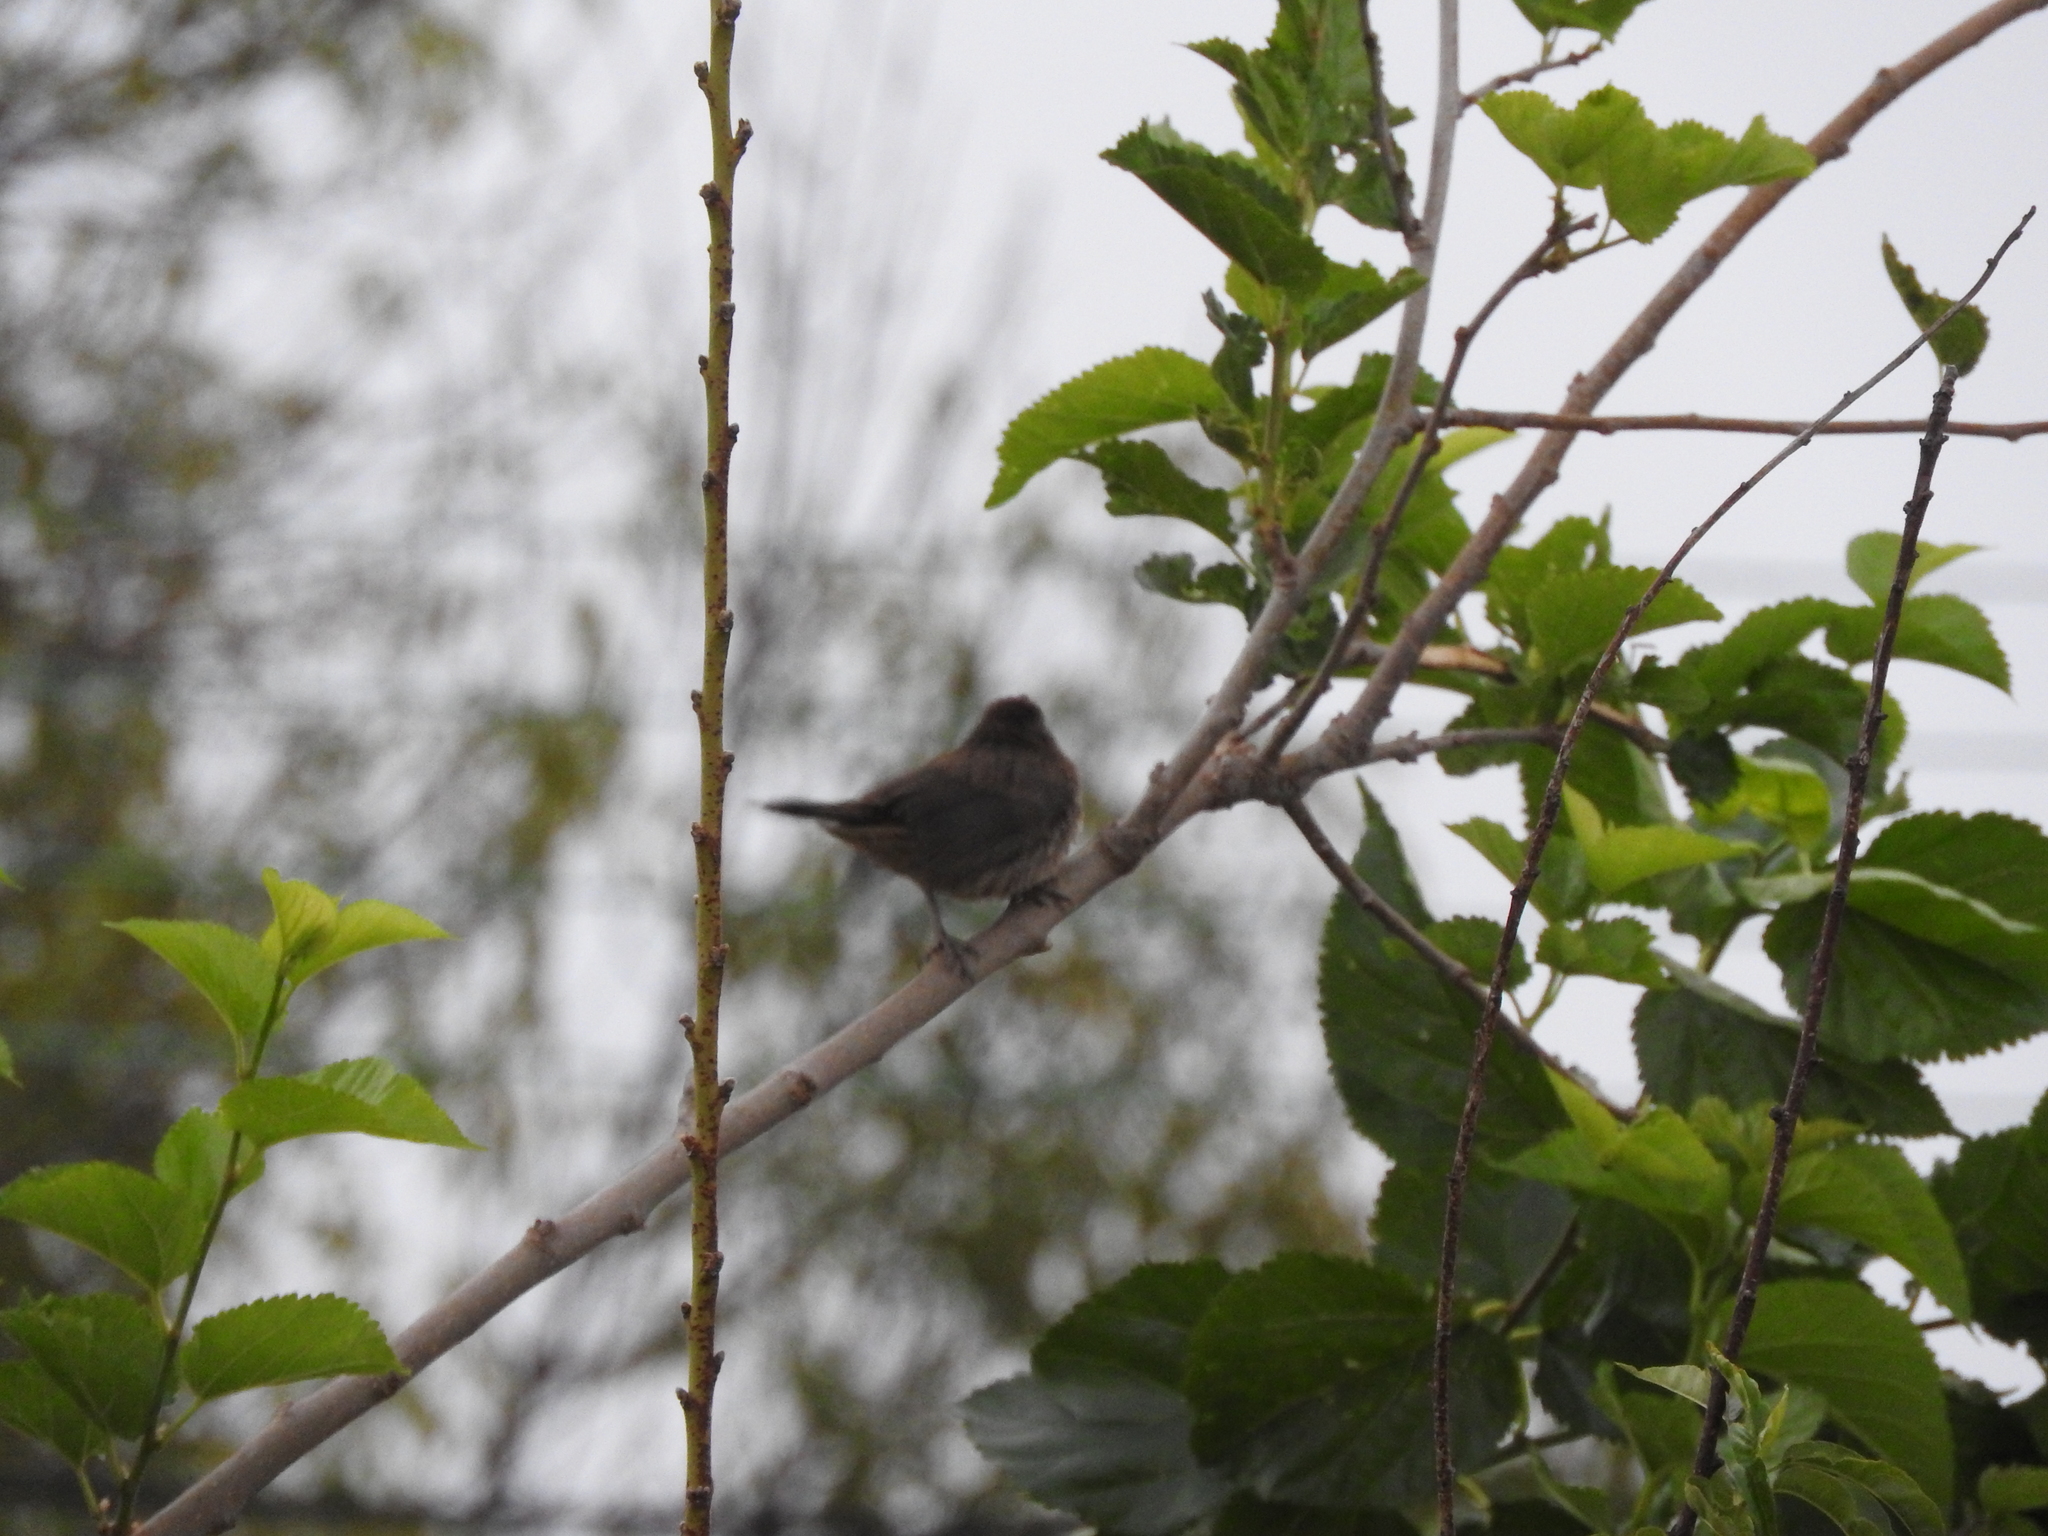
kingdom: Animalia
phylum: Chordata
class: Aves
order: Passeriformes
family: Fringillidae
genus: Haemorhous
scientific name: Haemorhous mexicanus
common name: House finch
